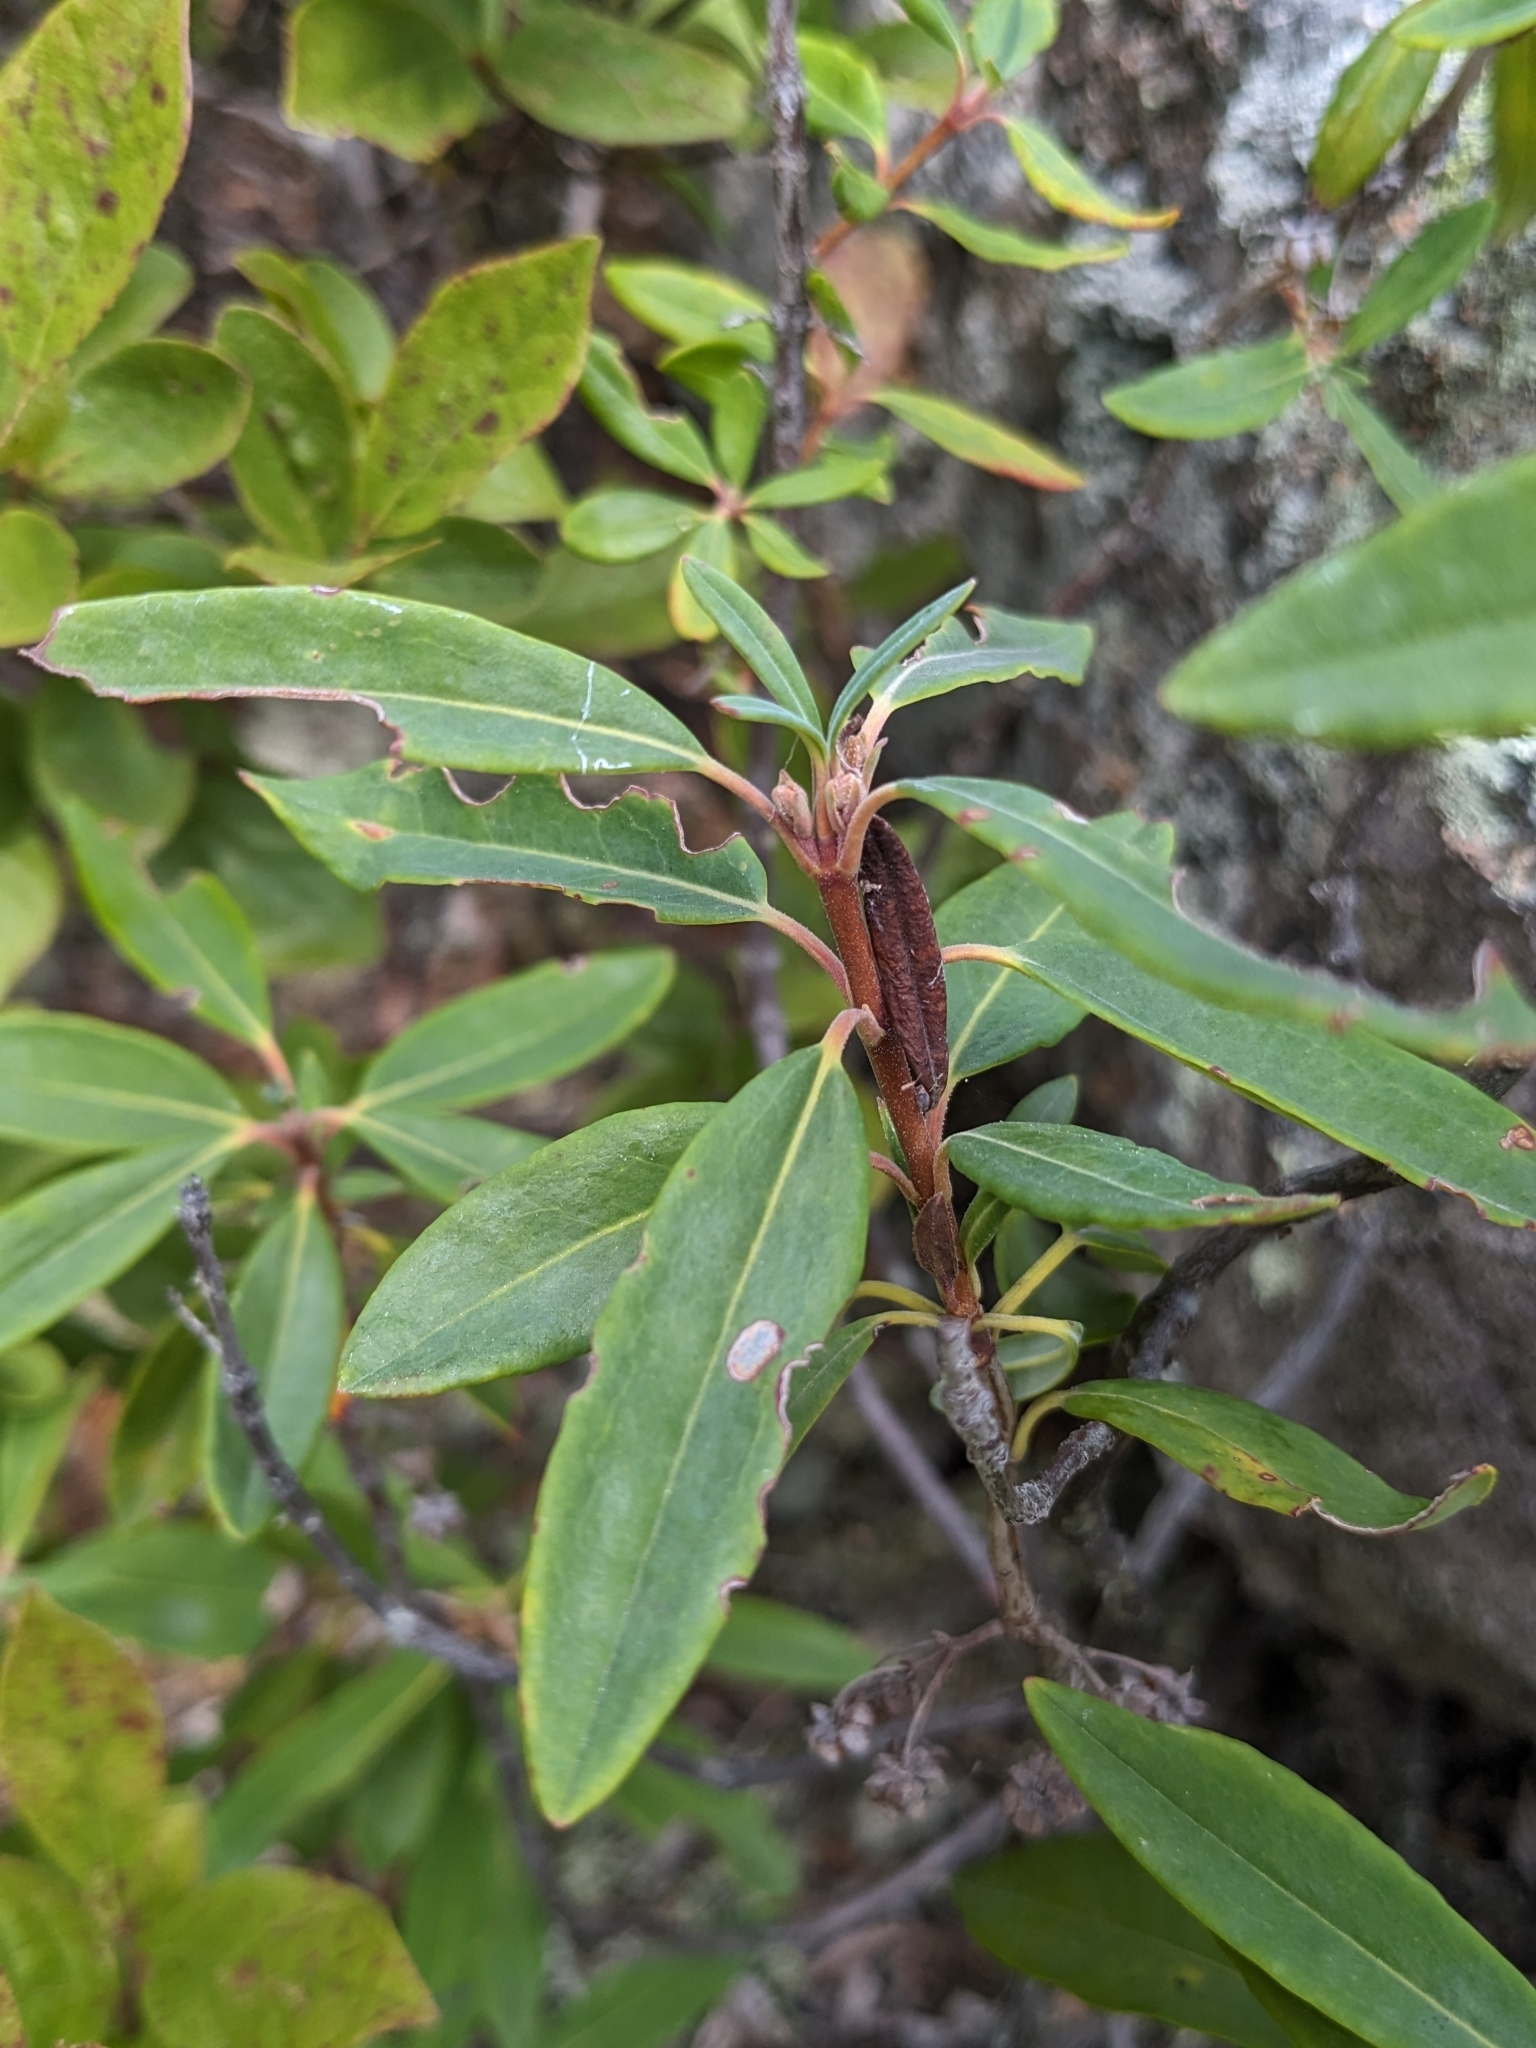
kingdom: Plantae
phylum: Tracheophyta
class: Magnoliopsida
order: Ericales
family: Ericaceae
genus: Kalmia
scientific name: Kalmia angustifolia
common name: Sheep-laurel
